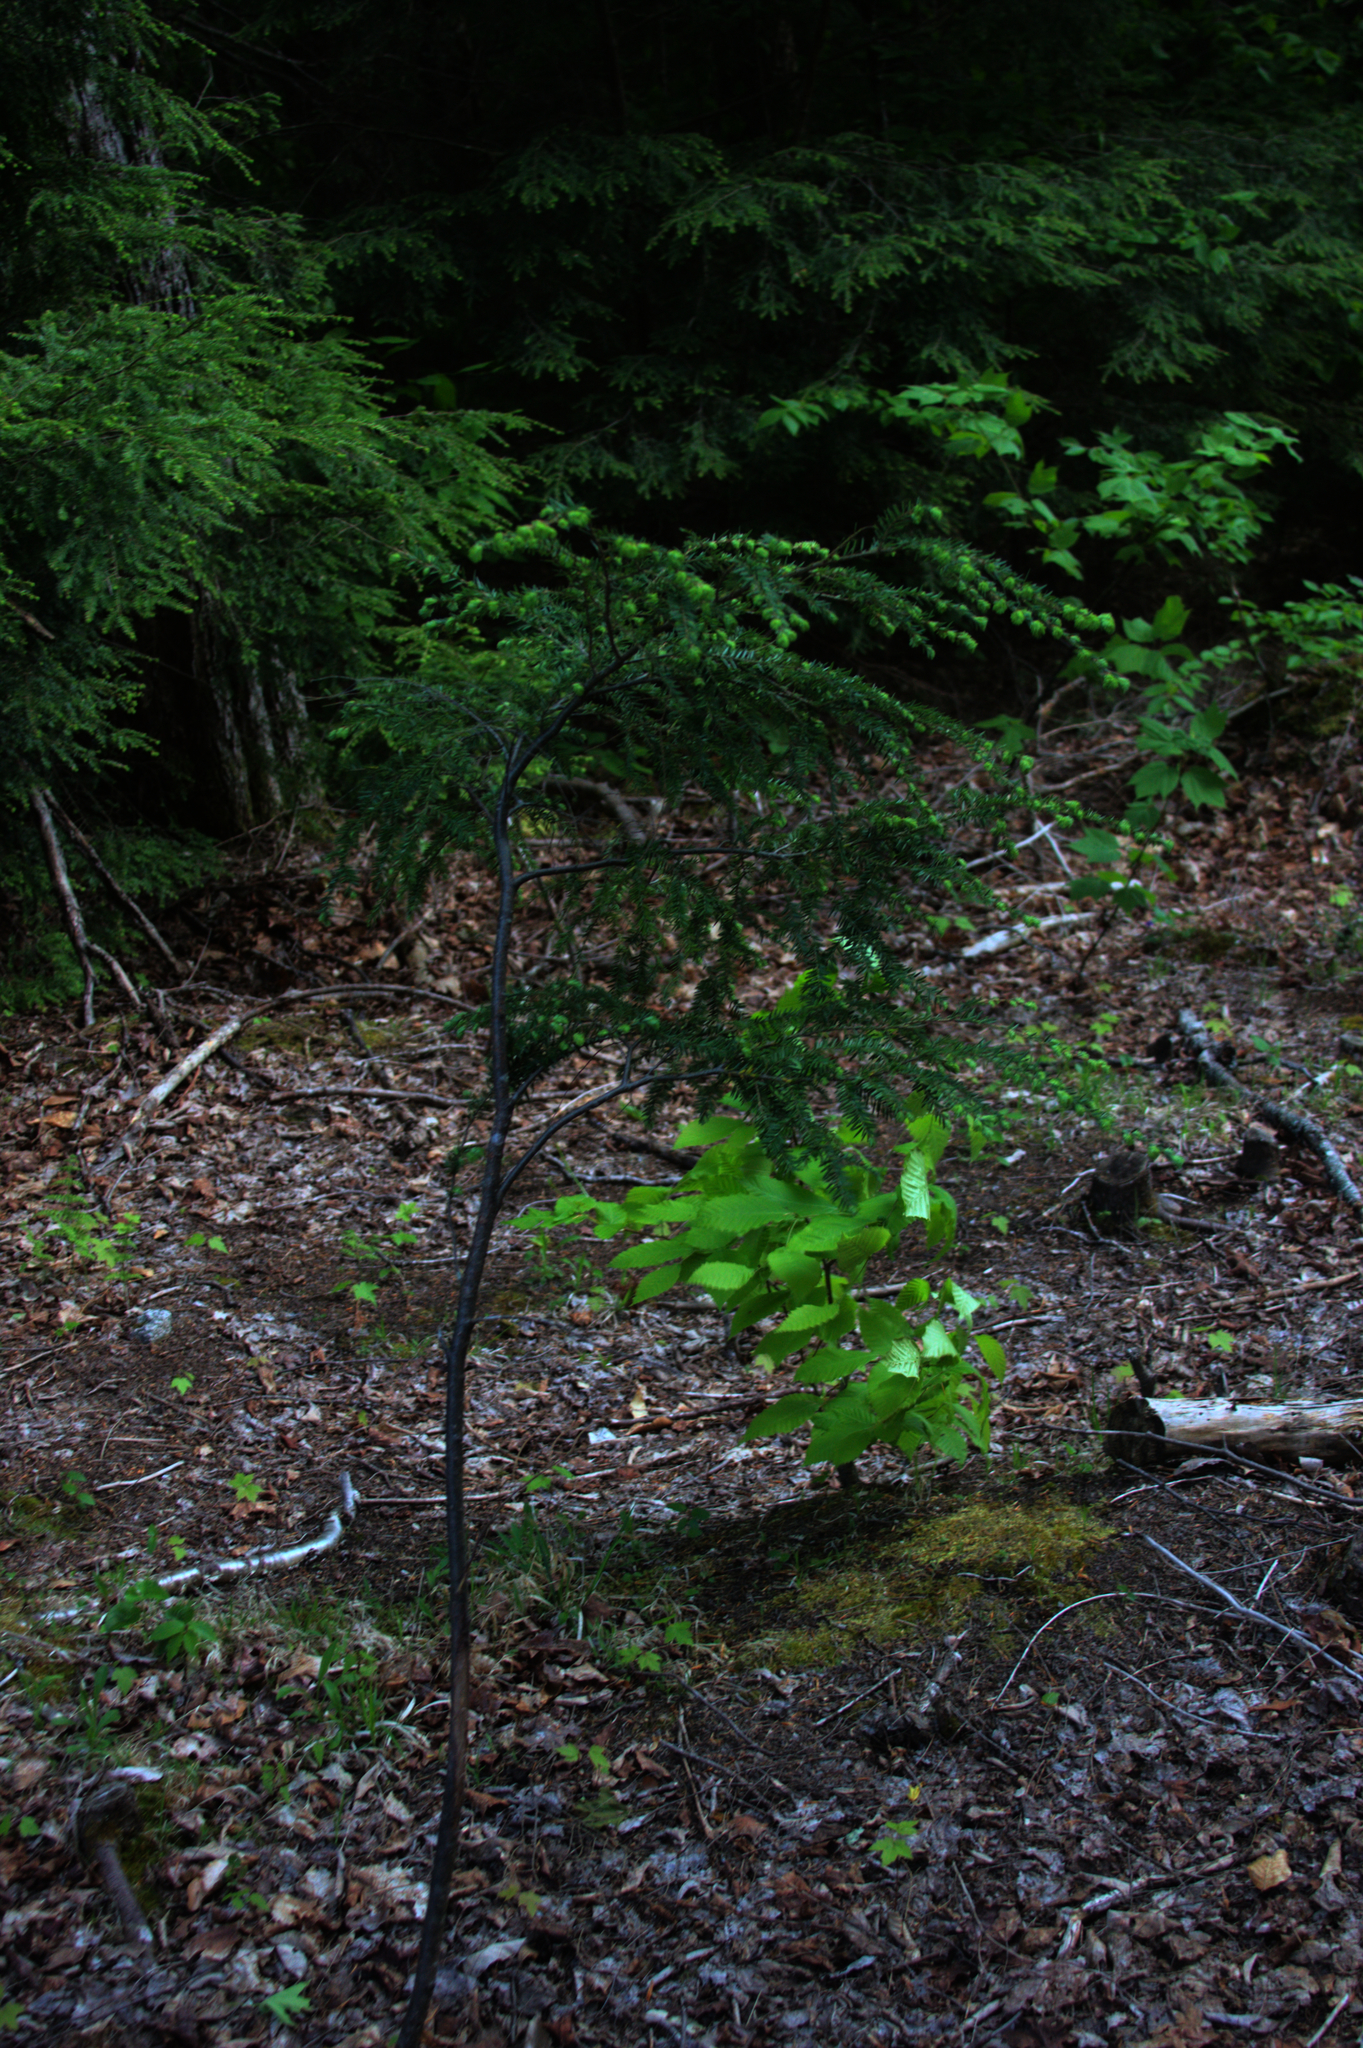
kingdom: Plantae
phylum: Tracheophyta
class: Pinopsida
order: Pinales
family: Pinaceae
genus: Tsuga
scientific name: Tsuga canadensis
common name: Eastern hemlock
